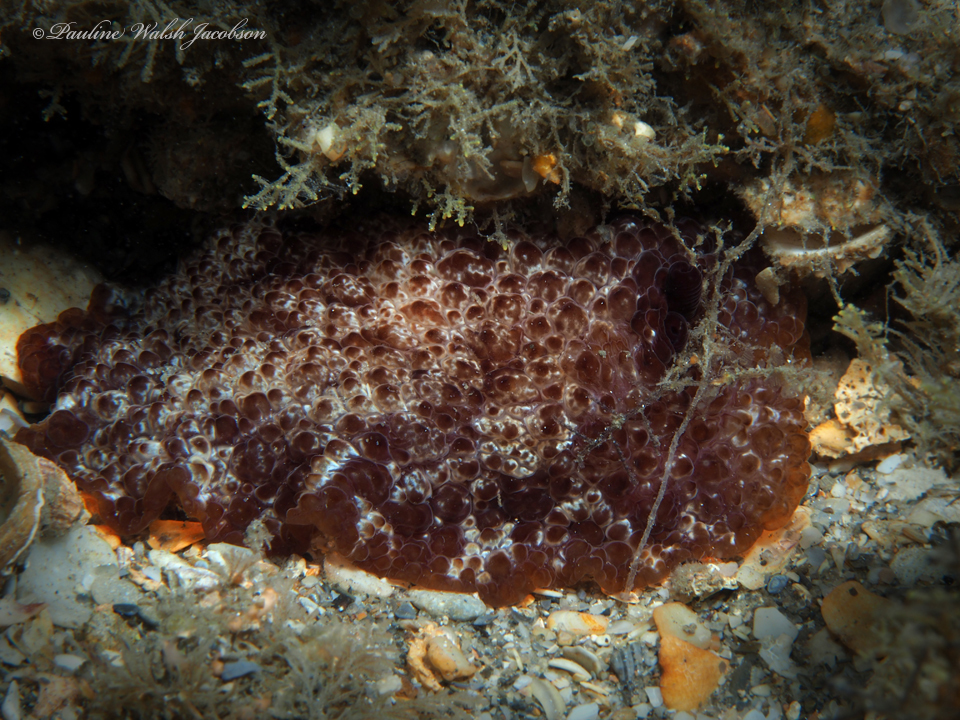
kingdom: Animalia
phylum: Mollusca
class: Gastropoda
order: Pleurobranchida
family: Pleurobranchidae
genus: Pleurobranchus
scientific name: Pleurobranchus areolatus
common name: Atlantic sidegill slug
